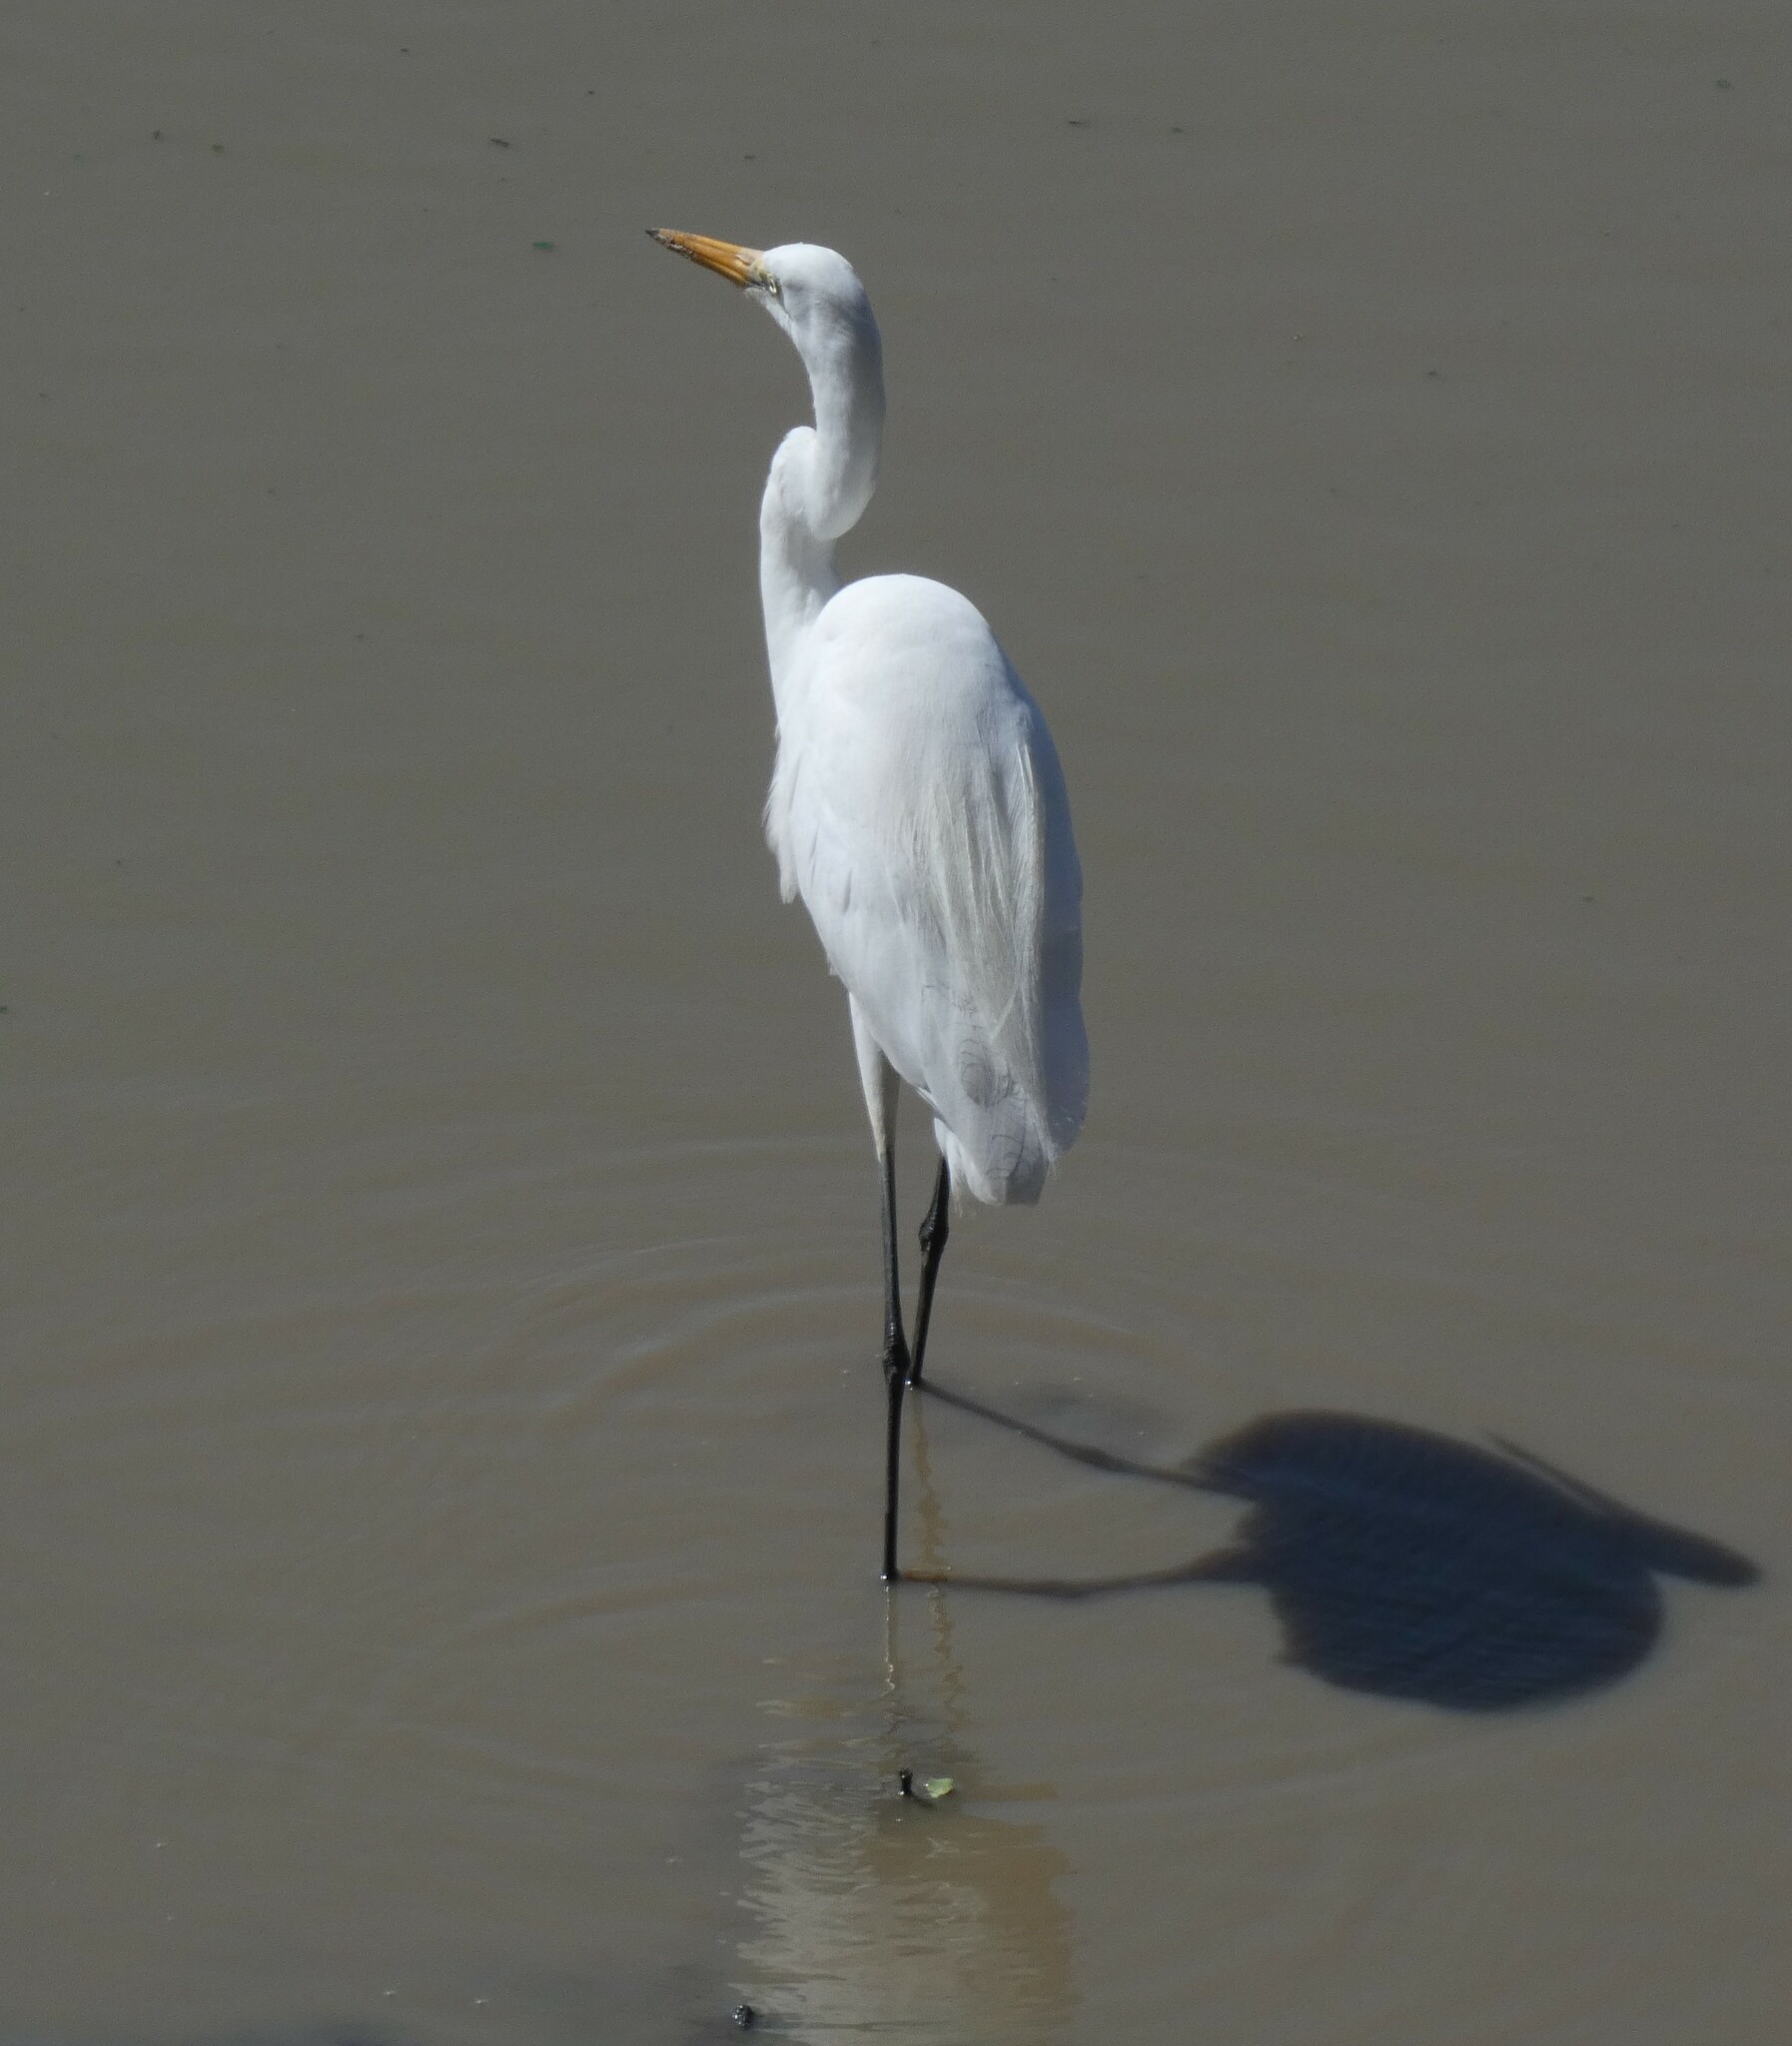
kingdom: Animalia
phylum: Chordata
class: Aves
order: Pelecaniformes
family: Ardeidae
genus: Ardea
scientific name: Ardea alba
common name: Great egret
